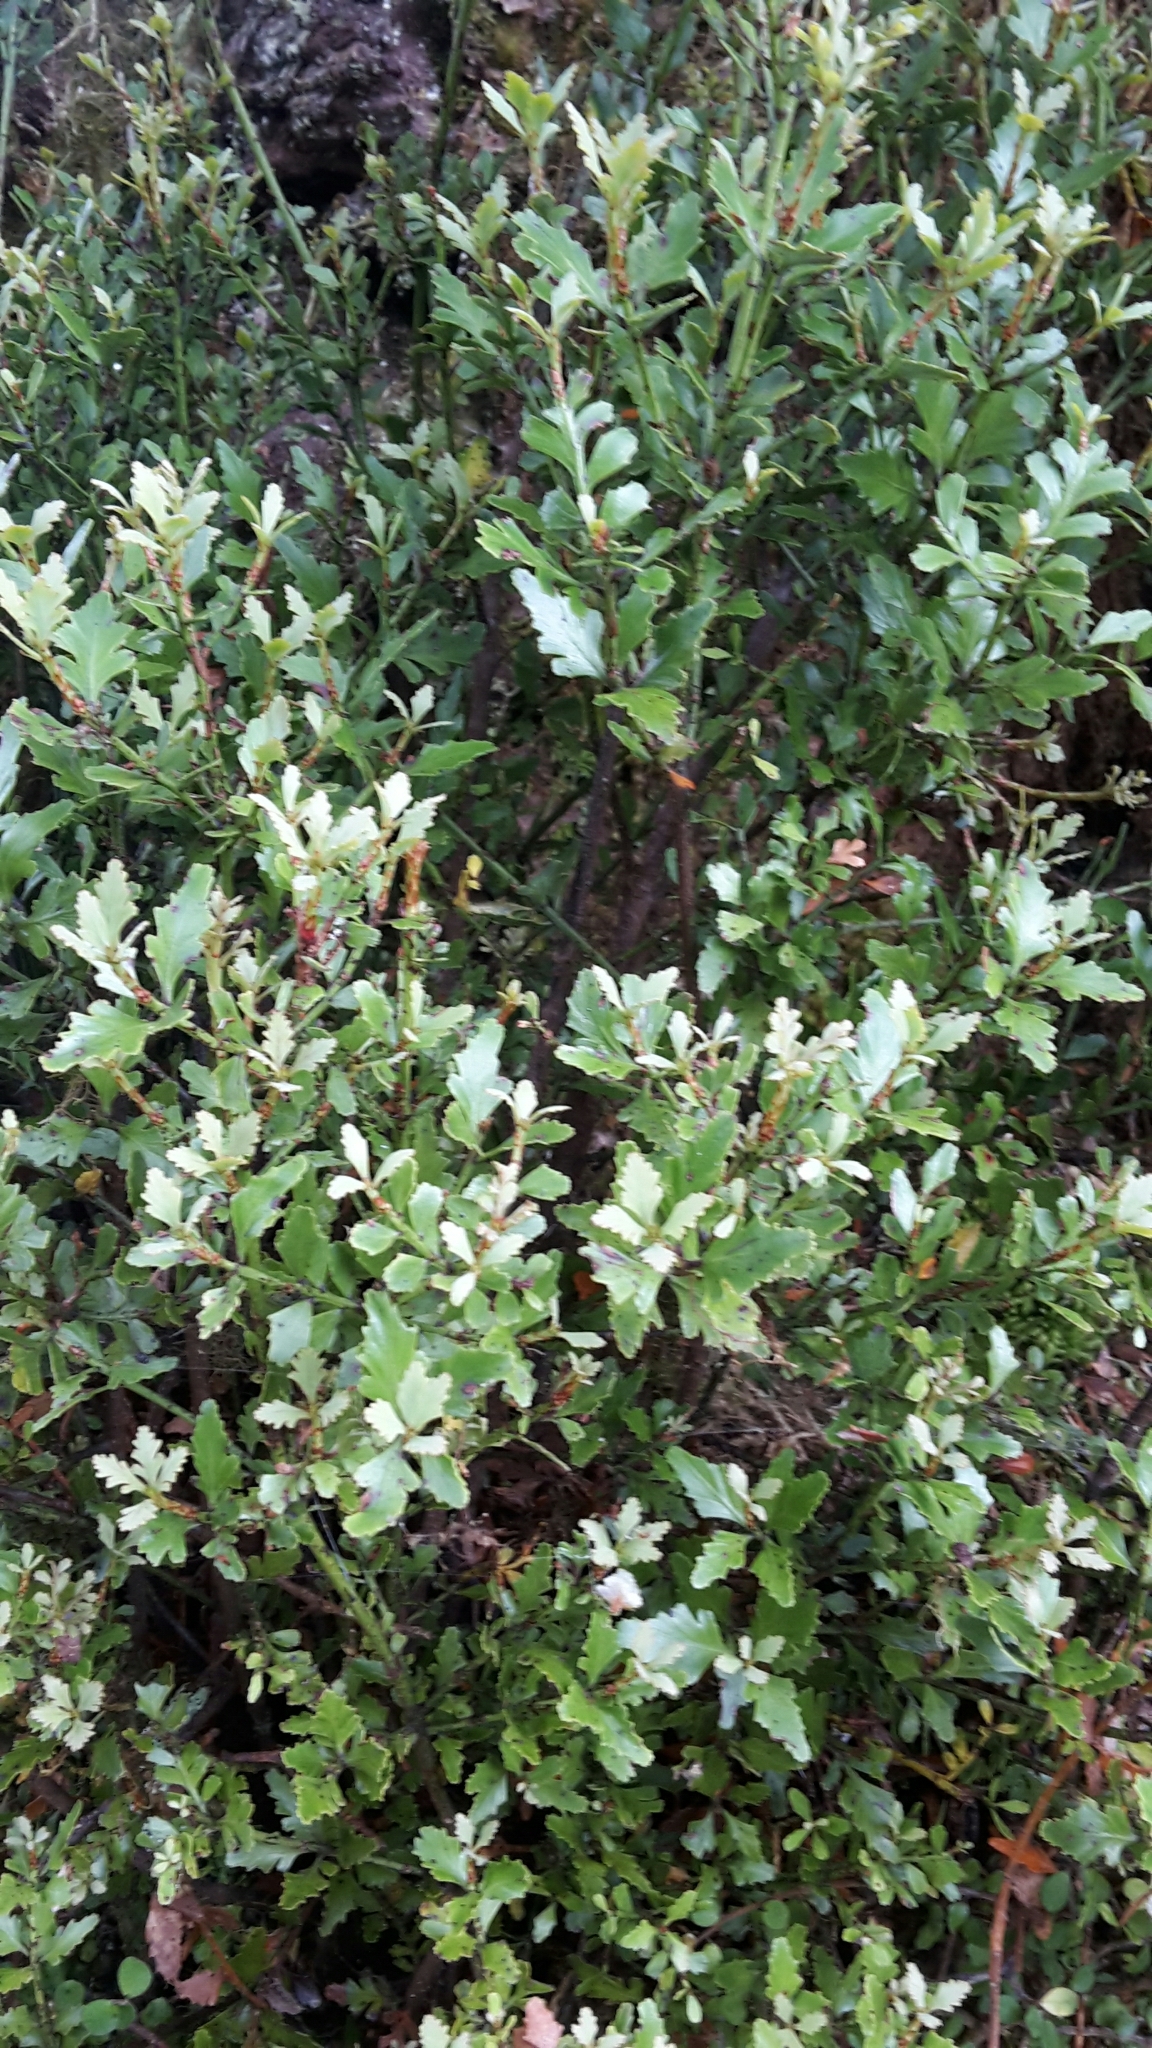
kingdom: Plantae
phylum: Tracheophyta
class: Pinopsida
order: Pinales
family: Phyllocladaceae
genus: Phyllocladus
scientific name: Phyllocladus trichomanoides
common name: Celery pine
